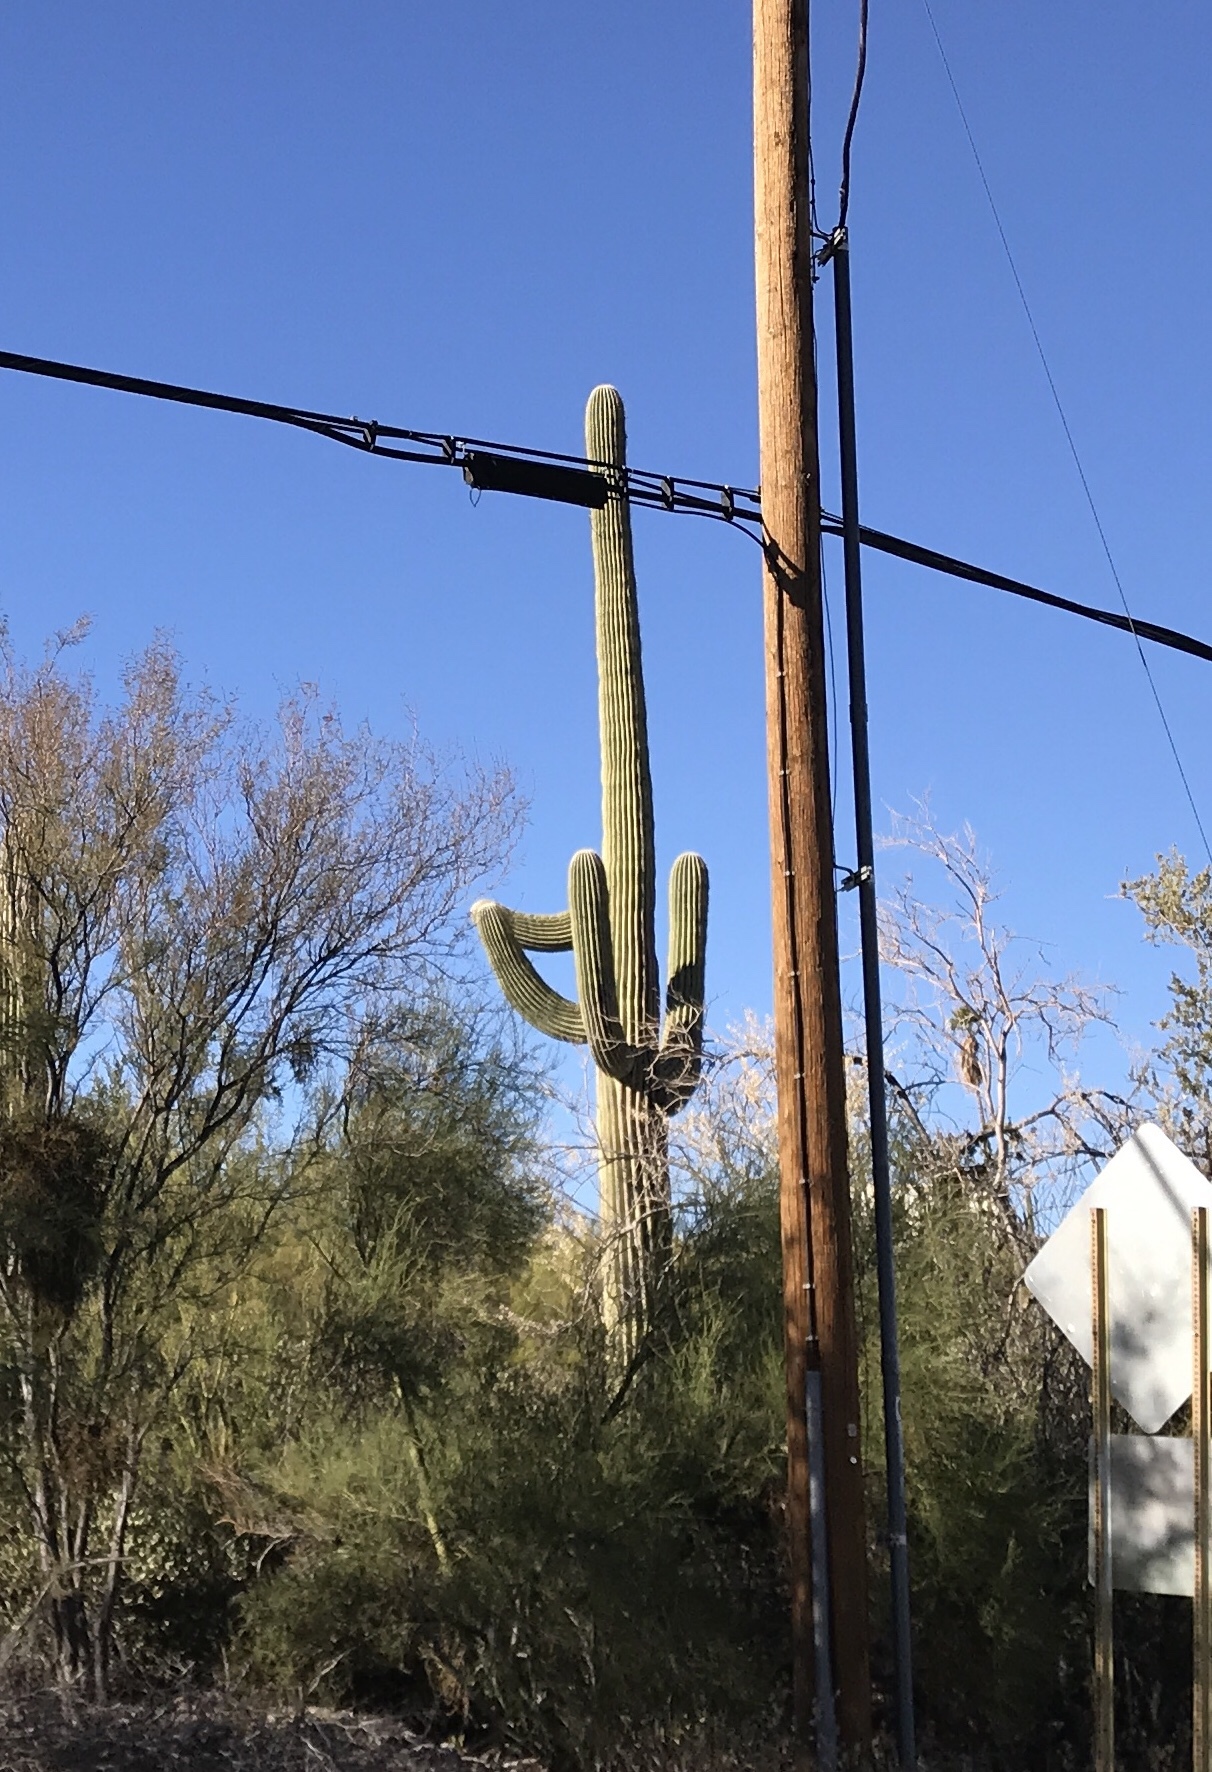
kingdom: Plantae
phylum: Tracheophyta
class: Magnoliopsida
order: Caryophyllales
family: Cactaceae
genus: Carnegiea
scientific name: Carnegiea gigantea
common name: Saguaro
